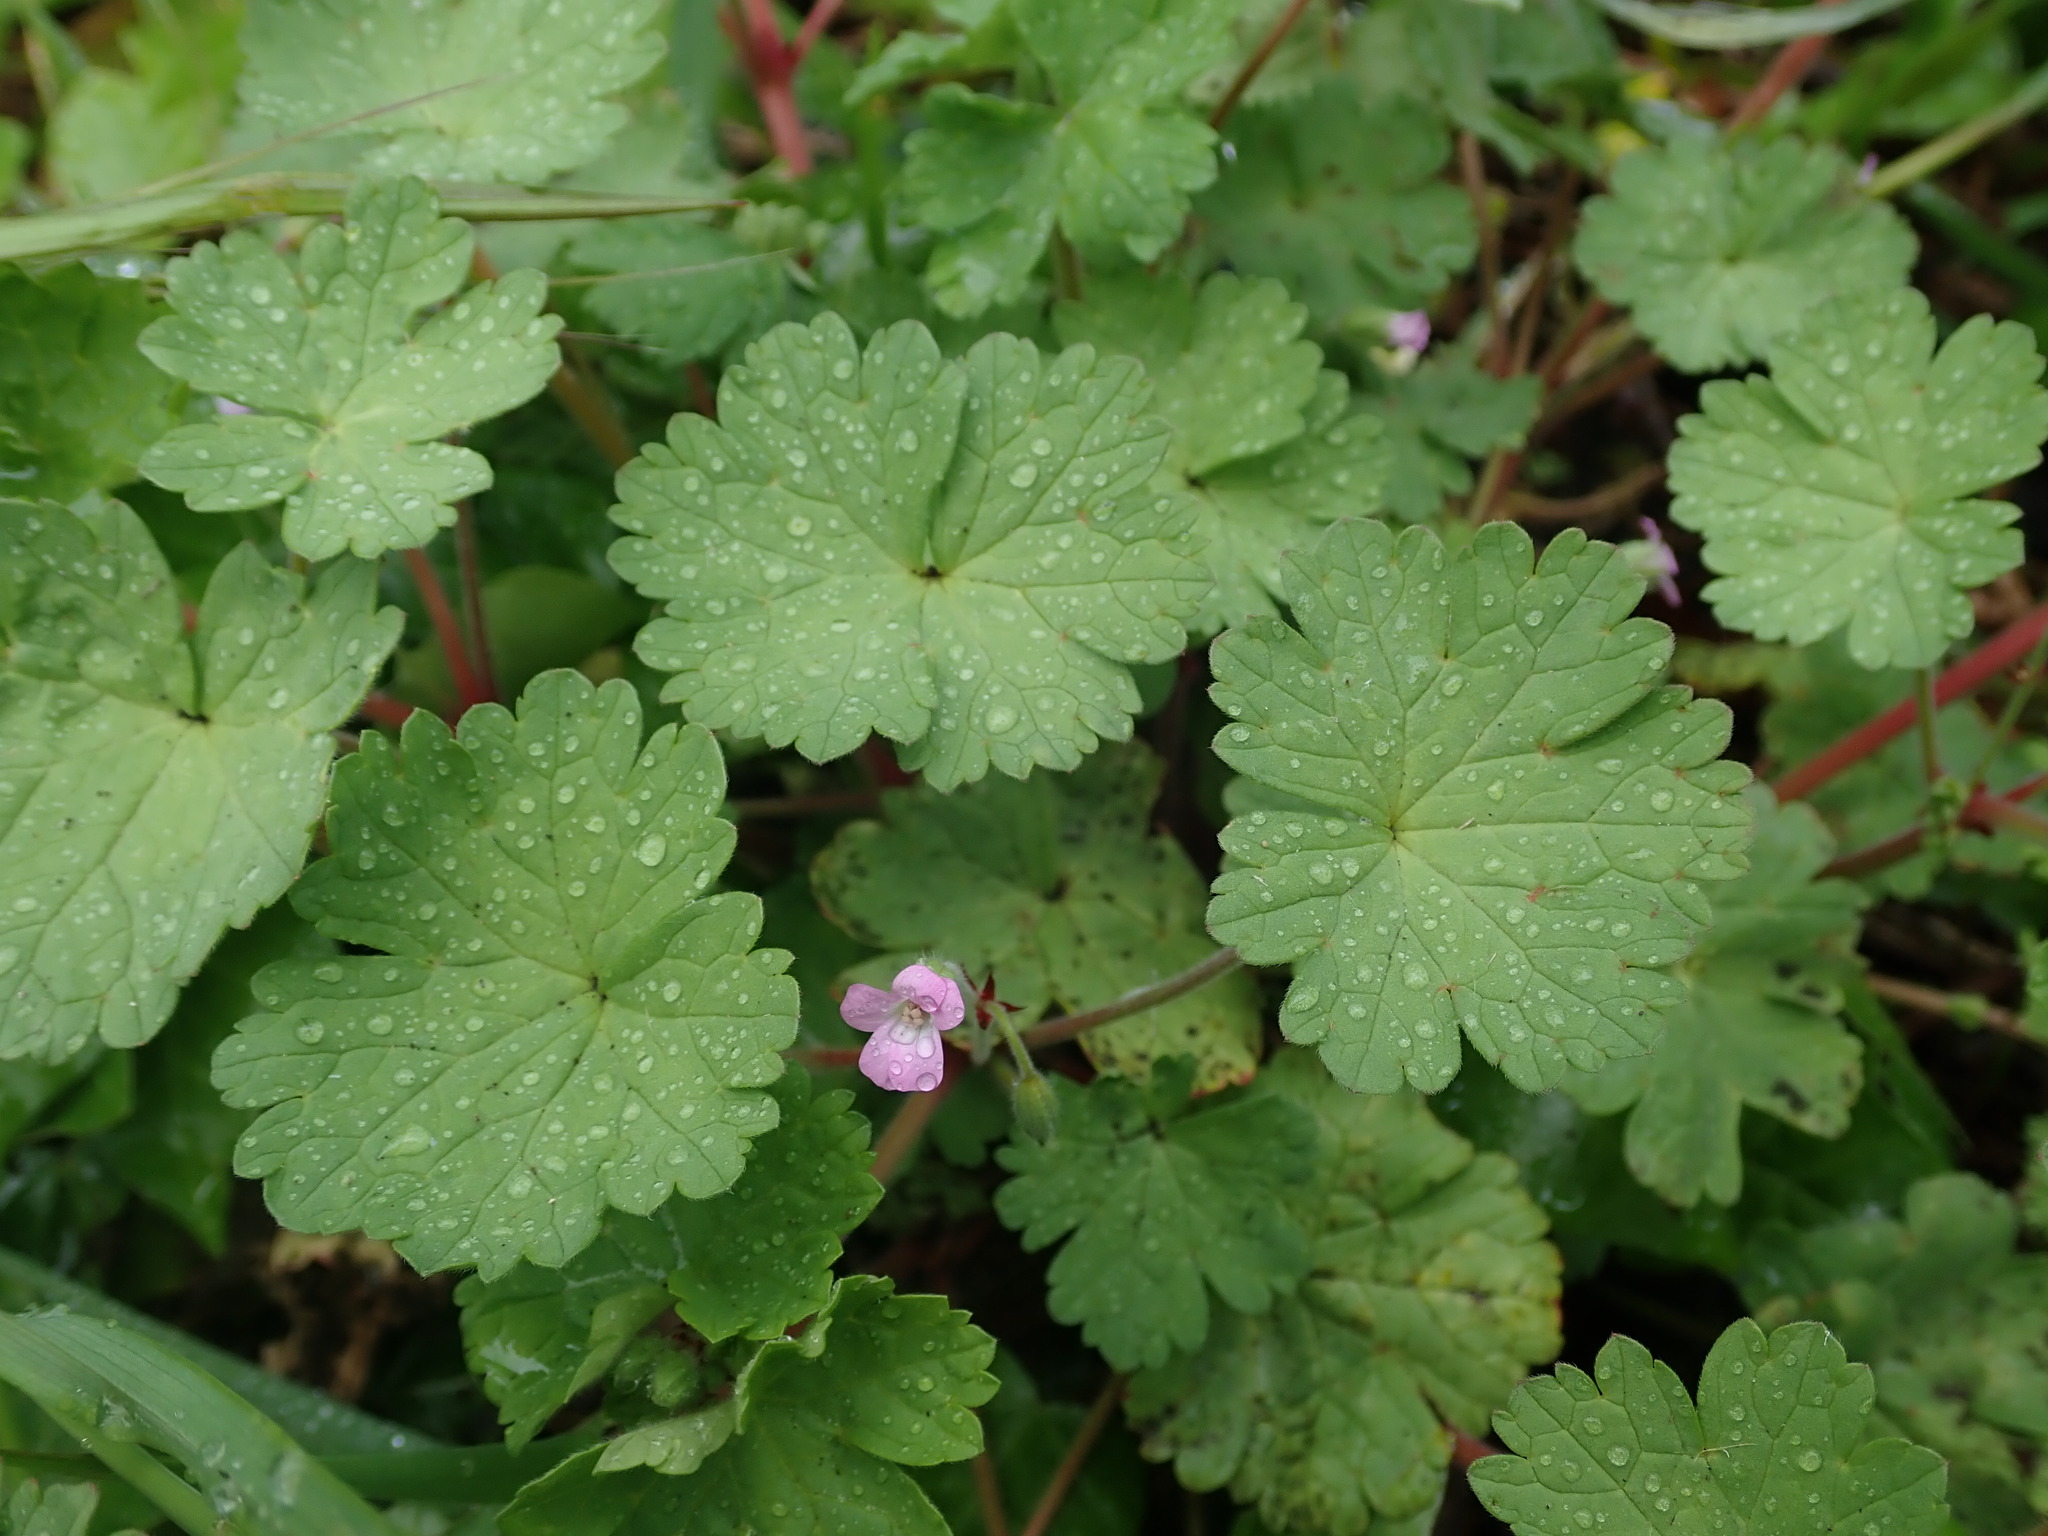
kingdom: Plantae
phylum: Tracheophyta
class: Magnoliopsida
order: Geraniales
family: Geraniaceae
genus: Geranium
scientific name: Geranium rotundifolium
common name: Round-leaved crane's-bill
